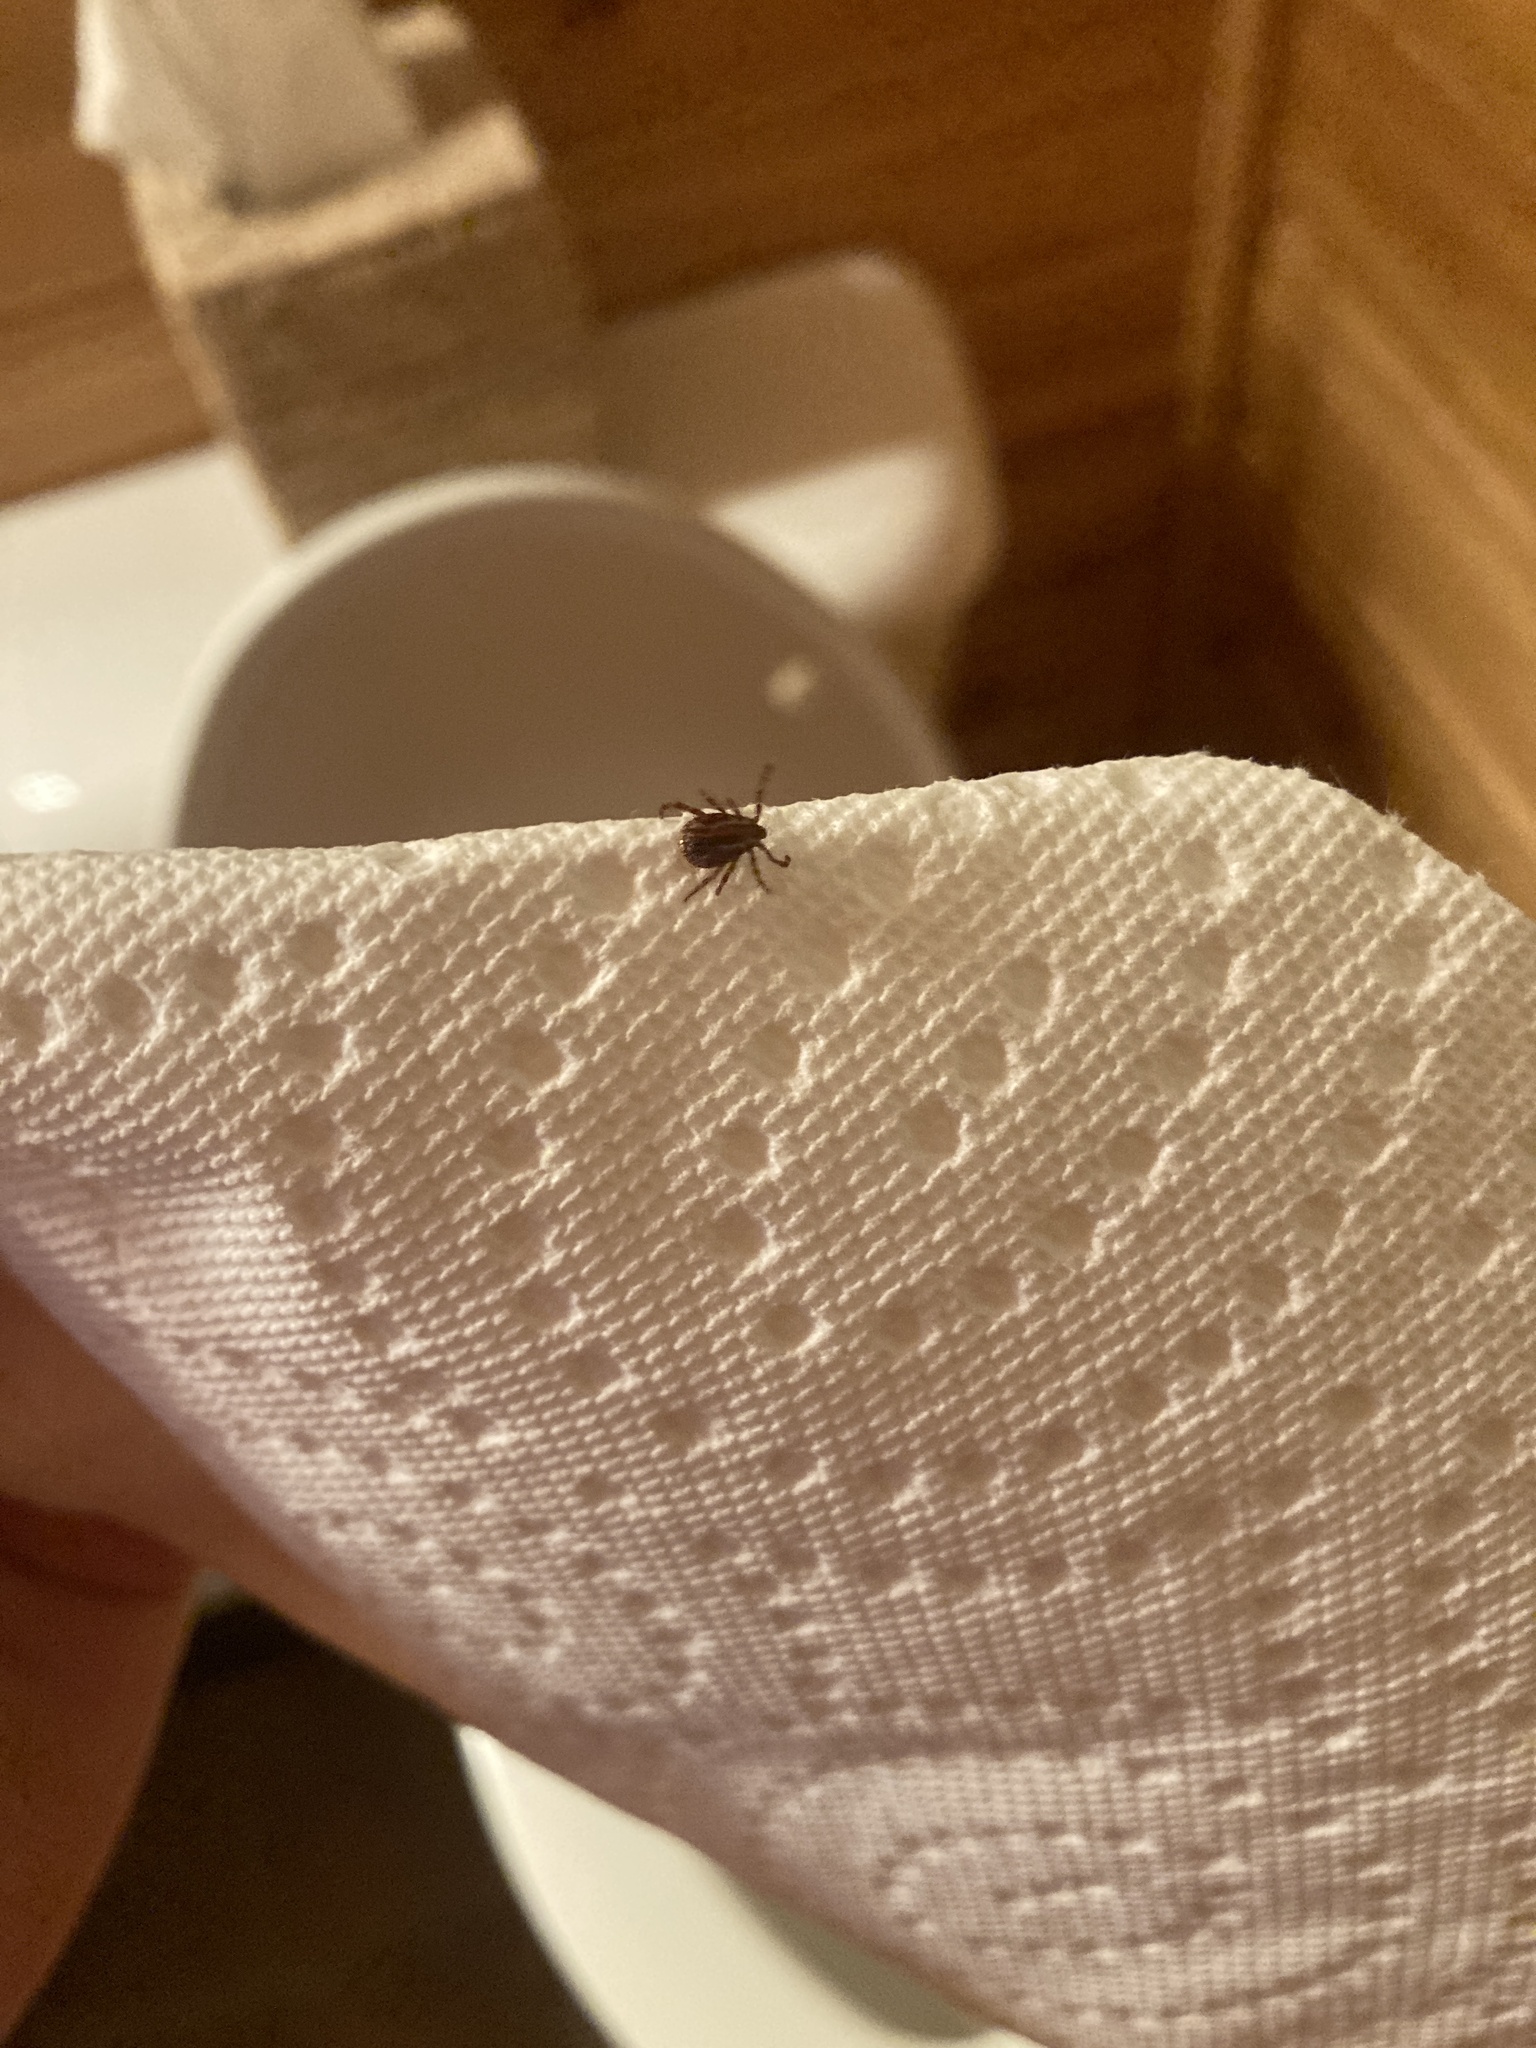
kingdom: Animalia
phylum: Arthropoda
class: Arachnida
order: Ixodida
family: Ixodidae
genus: Dermacentor
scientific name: Dermacentor variabilis
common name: American dog tick
